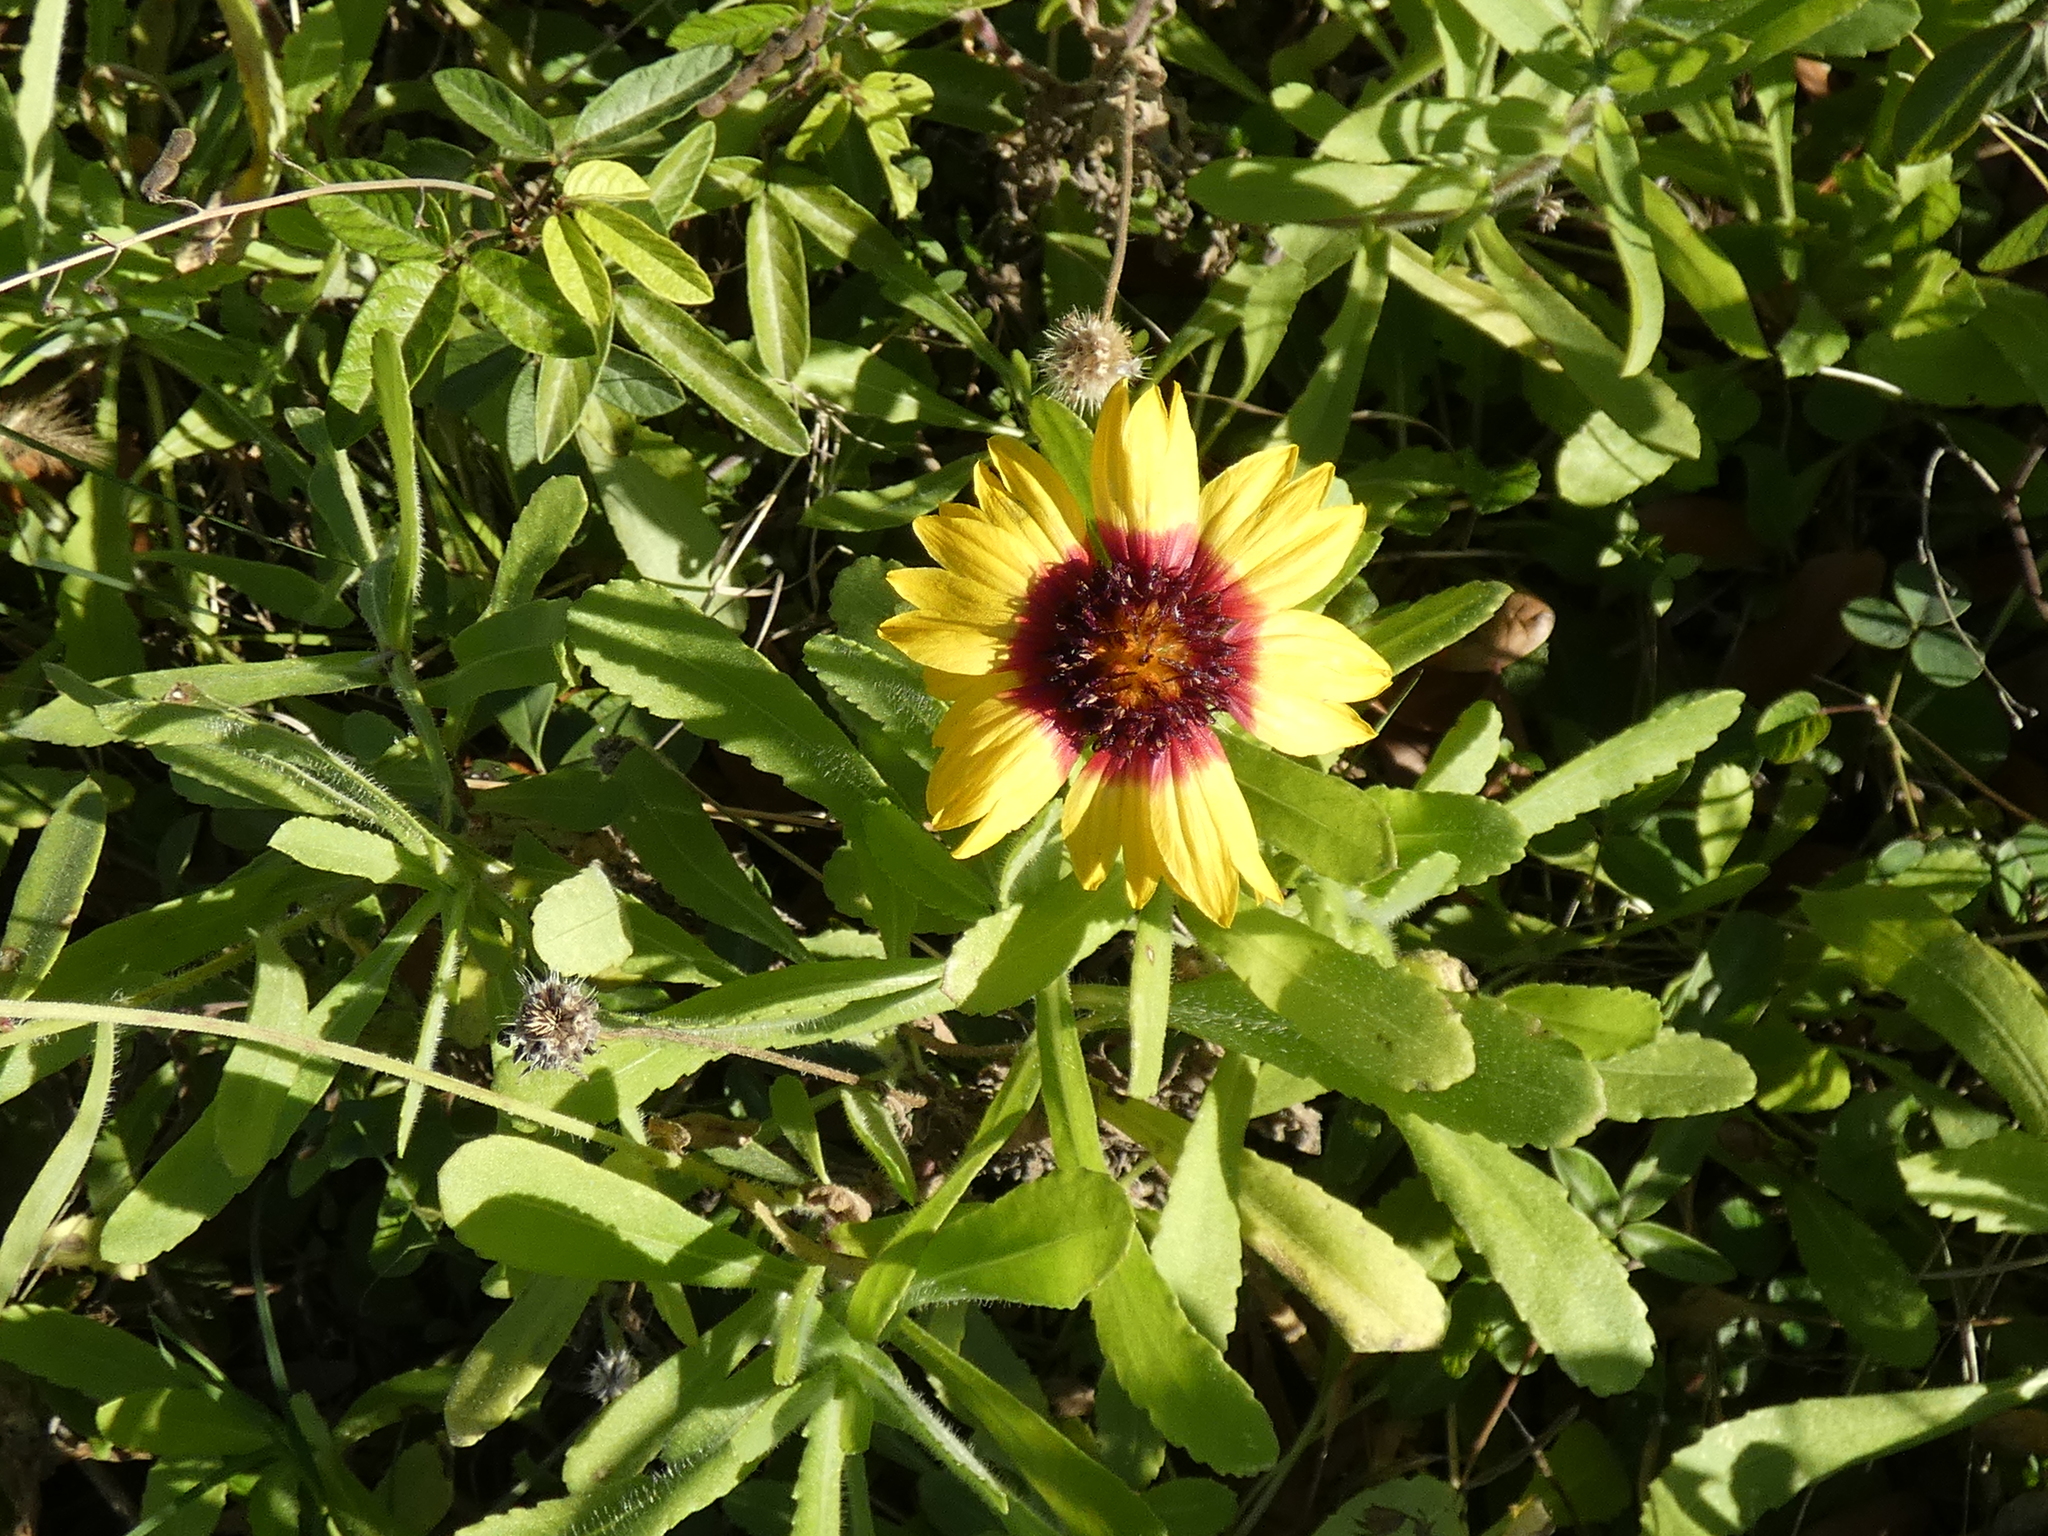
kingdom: Plantae
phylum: Tracheophyta
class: Magnoliopsida
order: Asterales
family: Asteraceae
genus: Gaillardia
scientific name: Gaillardia pulchella
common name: Firewheel
